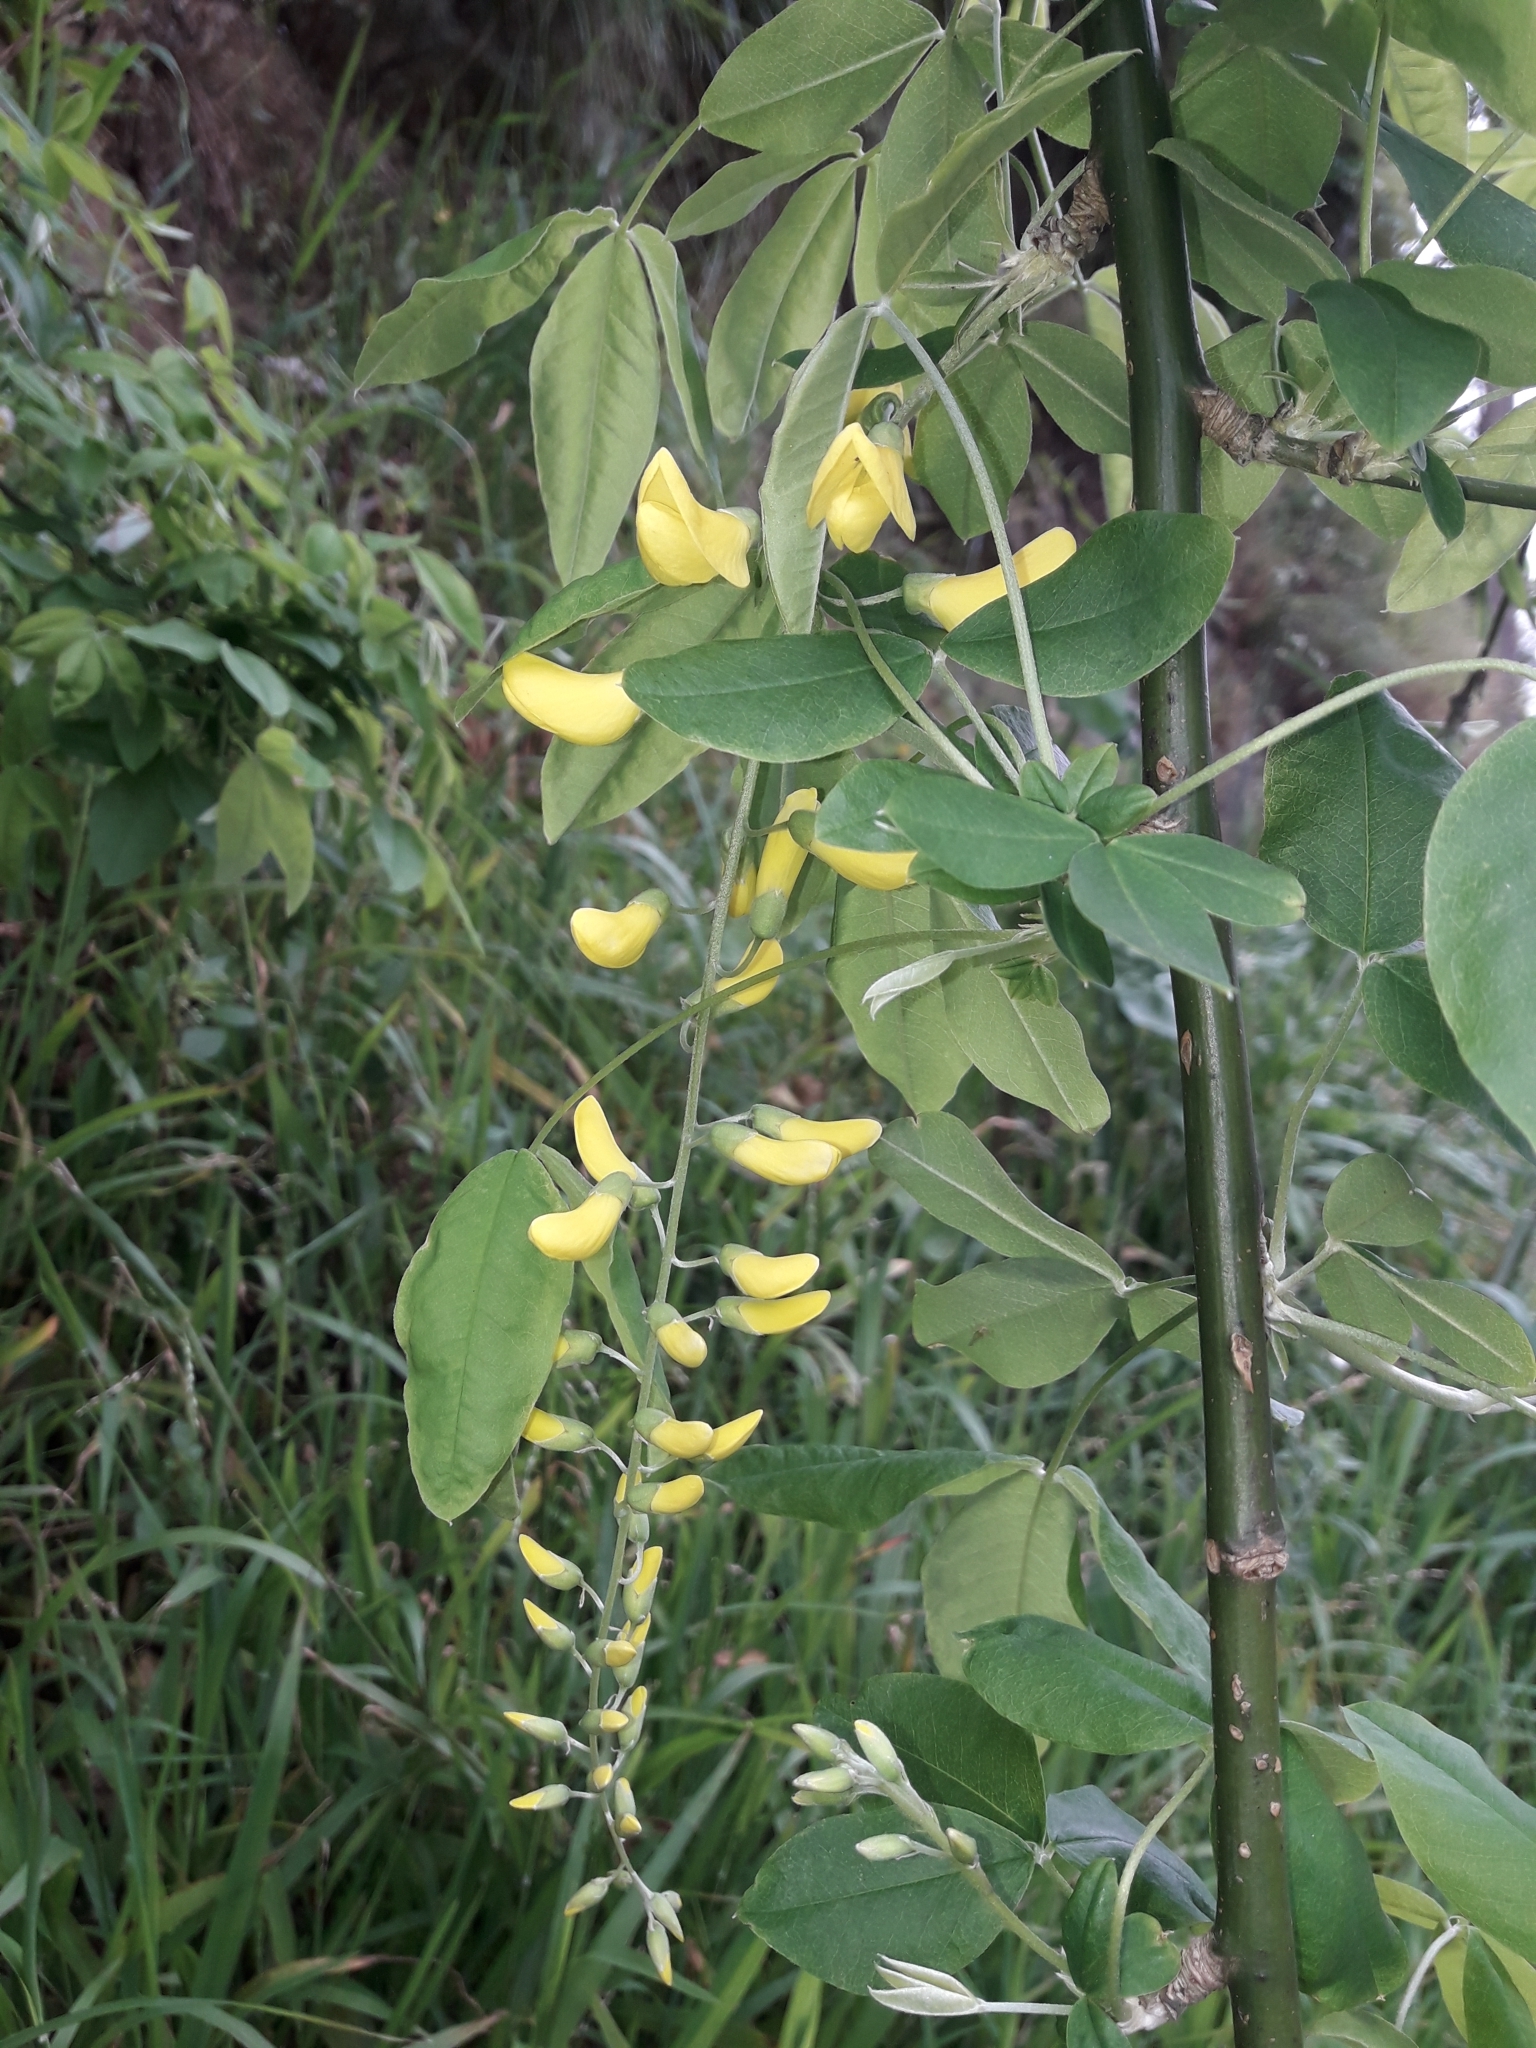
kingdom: Plantae
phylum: Tracheophyta
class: Magnoliopsida
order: Fabales
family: Fabaceae
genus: Laburnum
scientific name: Laburnum anagyroides
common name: Laburnum
